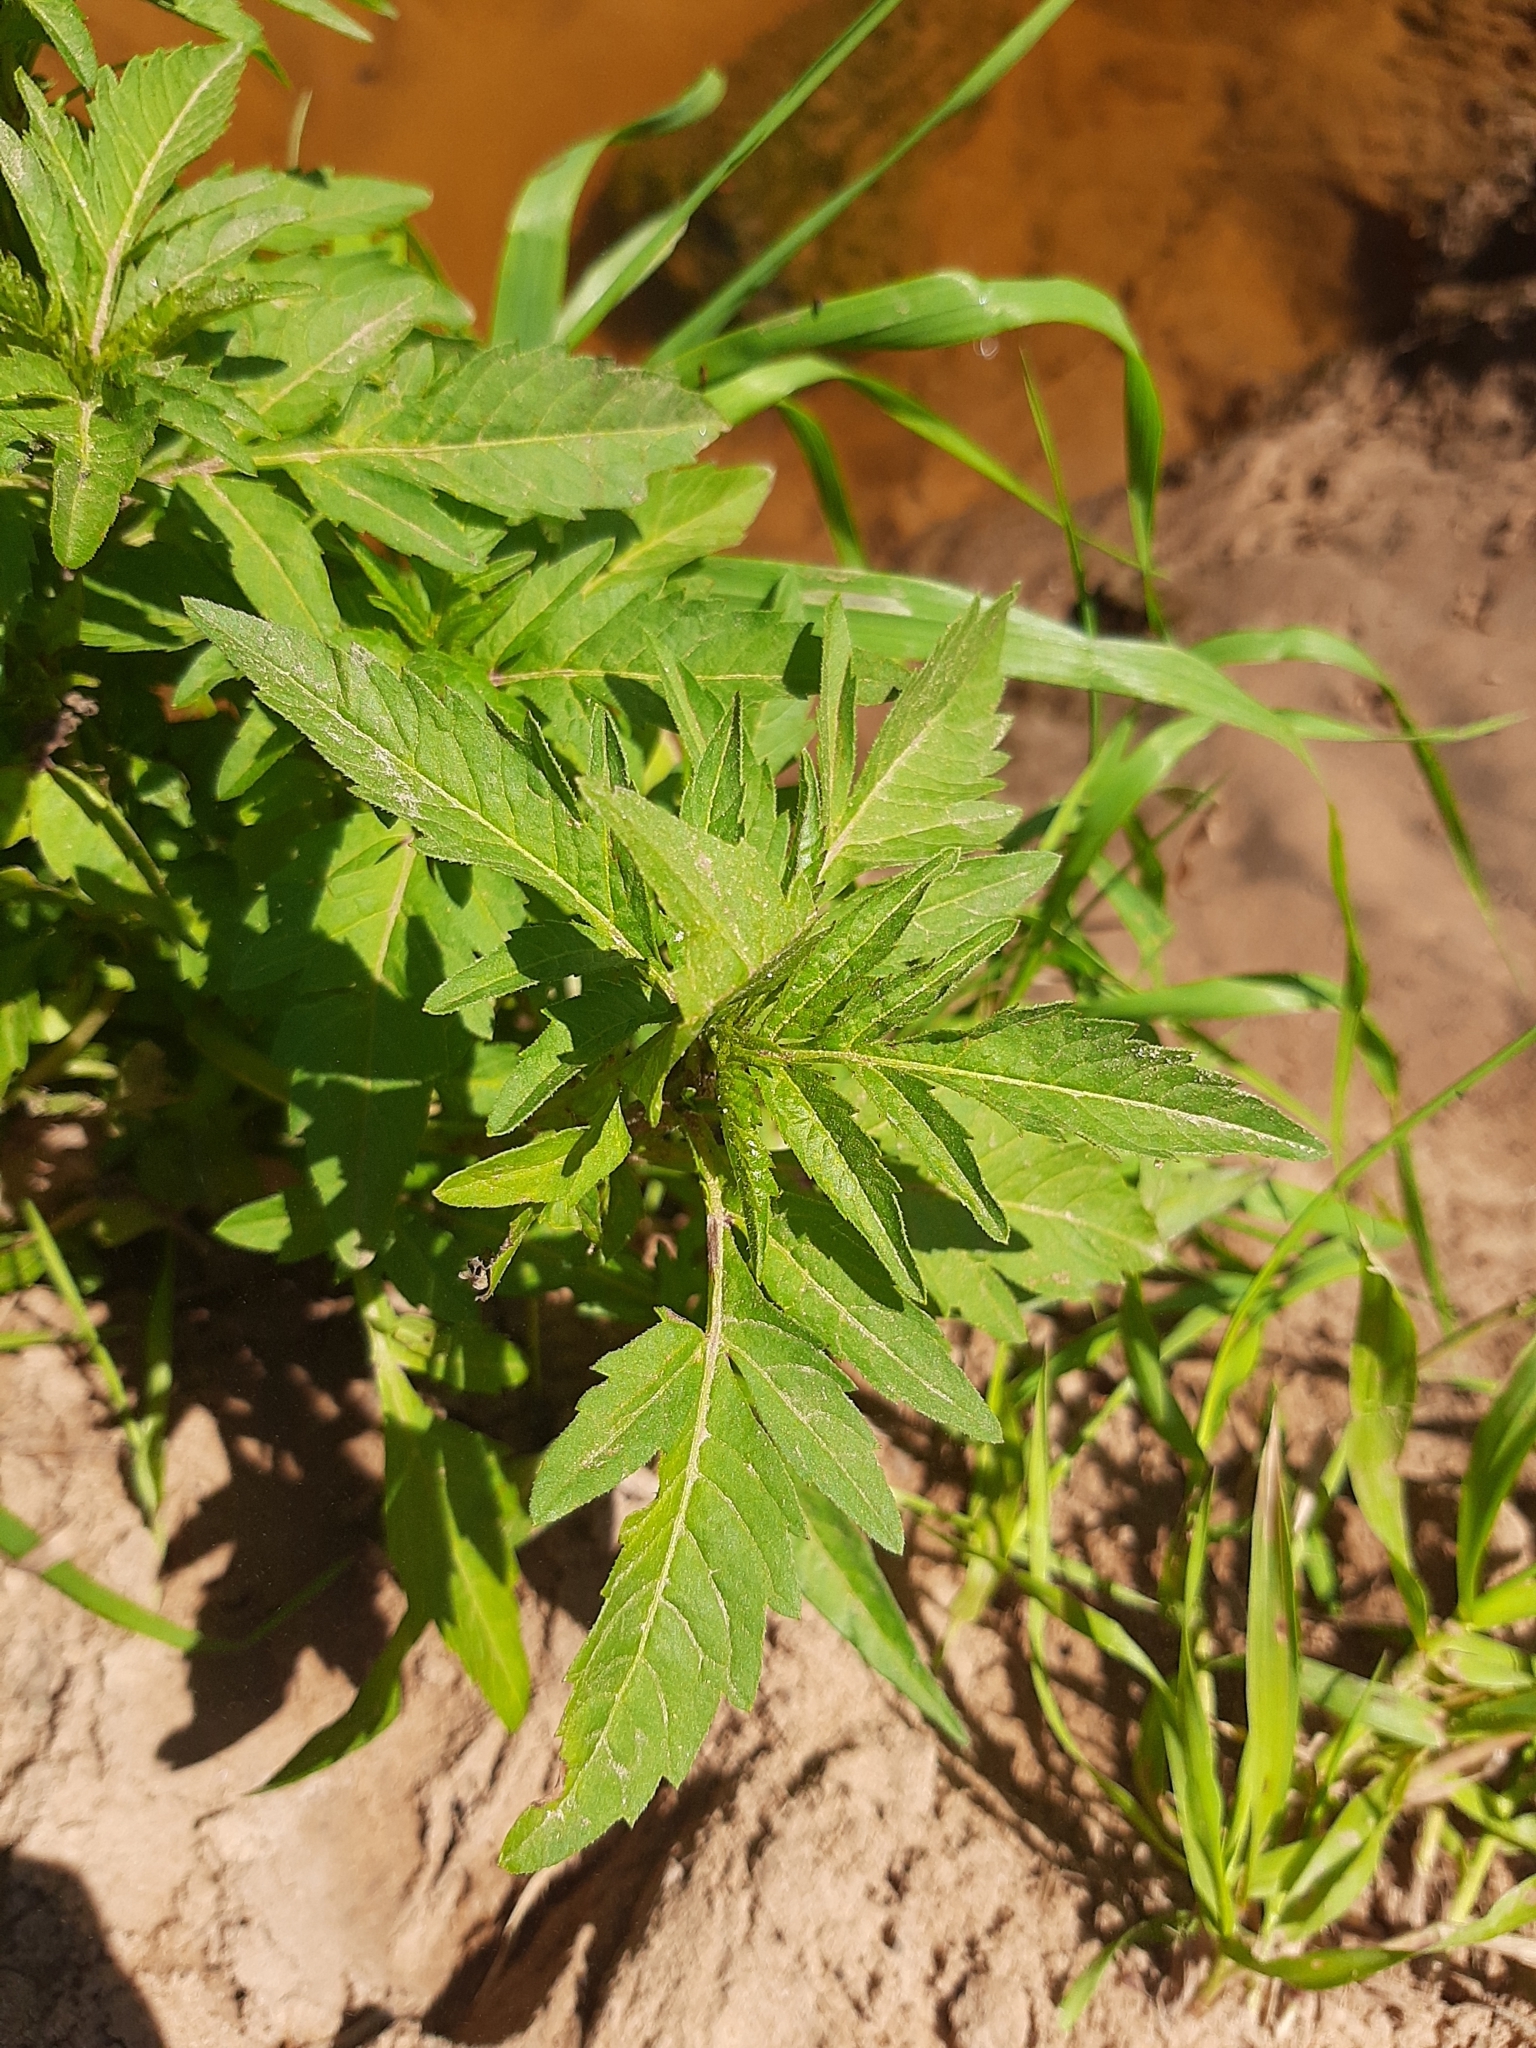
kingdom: Plantae
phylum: Tracheophyta
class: Magnoliopsida
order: Asterales
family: Asteraceae
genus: Bidens
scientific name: Bidens tripartita
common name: Trifid bur-marigold
